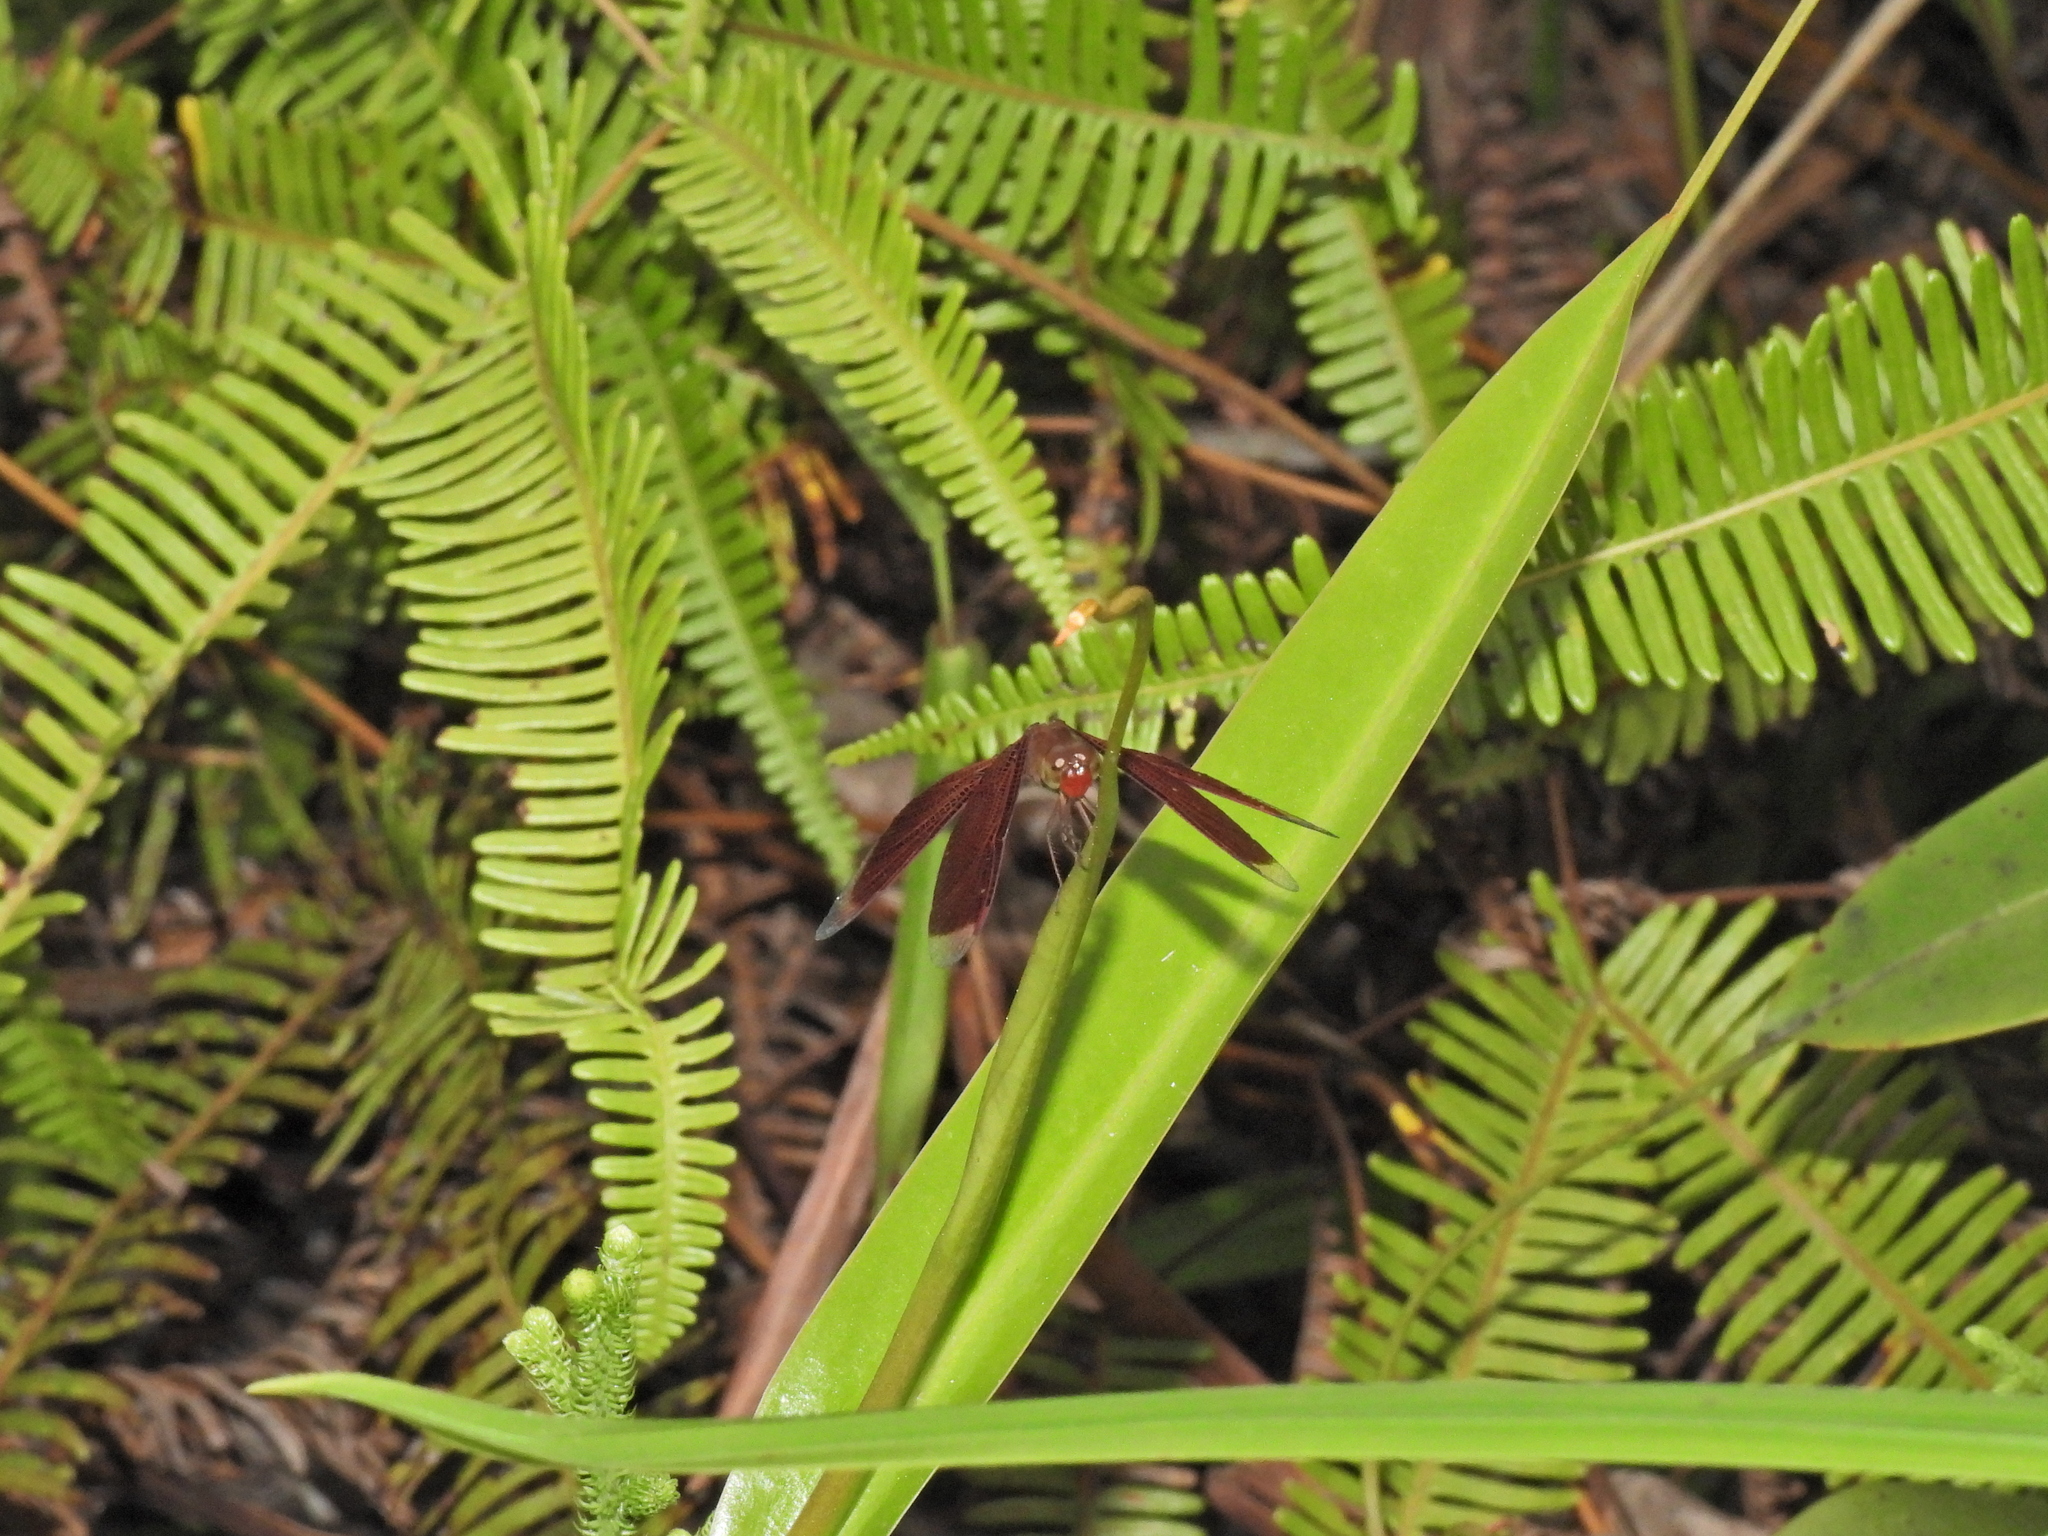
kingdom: Animalia
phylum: Arthropoda
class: Insecta
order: Odonata
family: Libellulidae
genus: Neurothemis
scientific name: Neurothemis fluctuans
